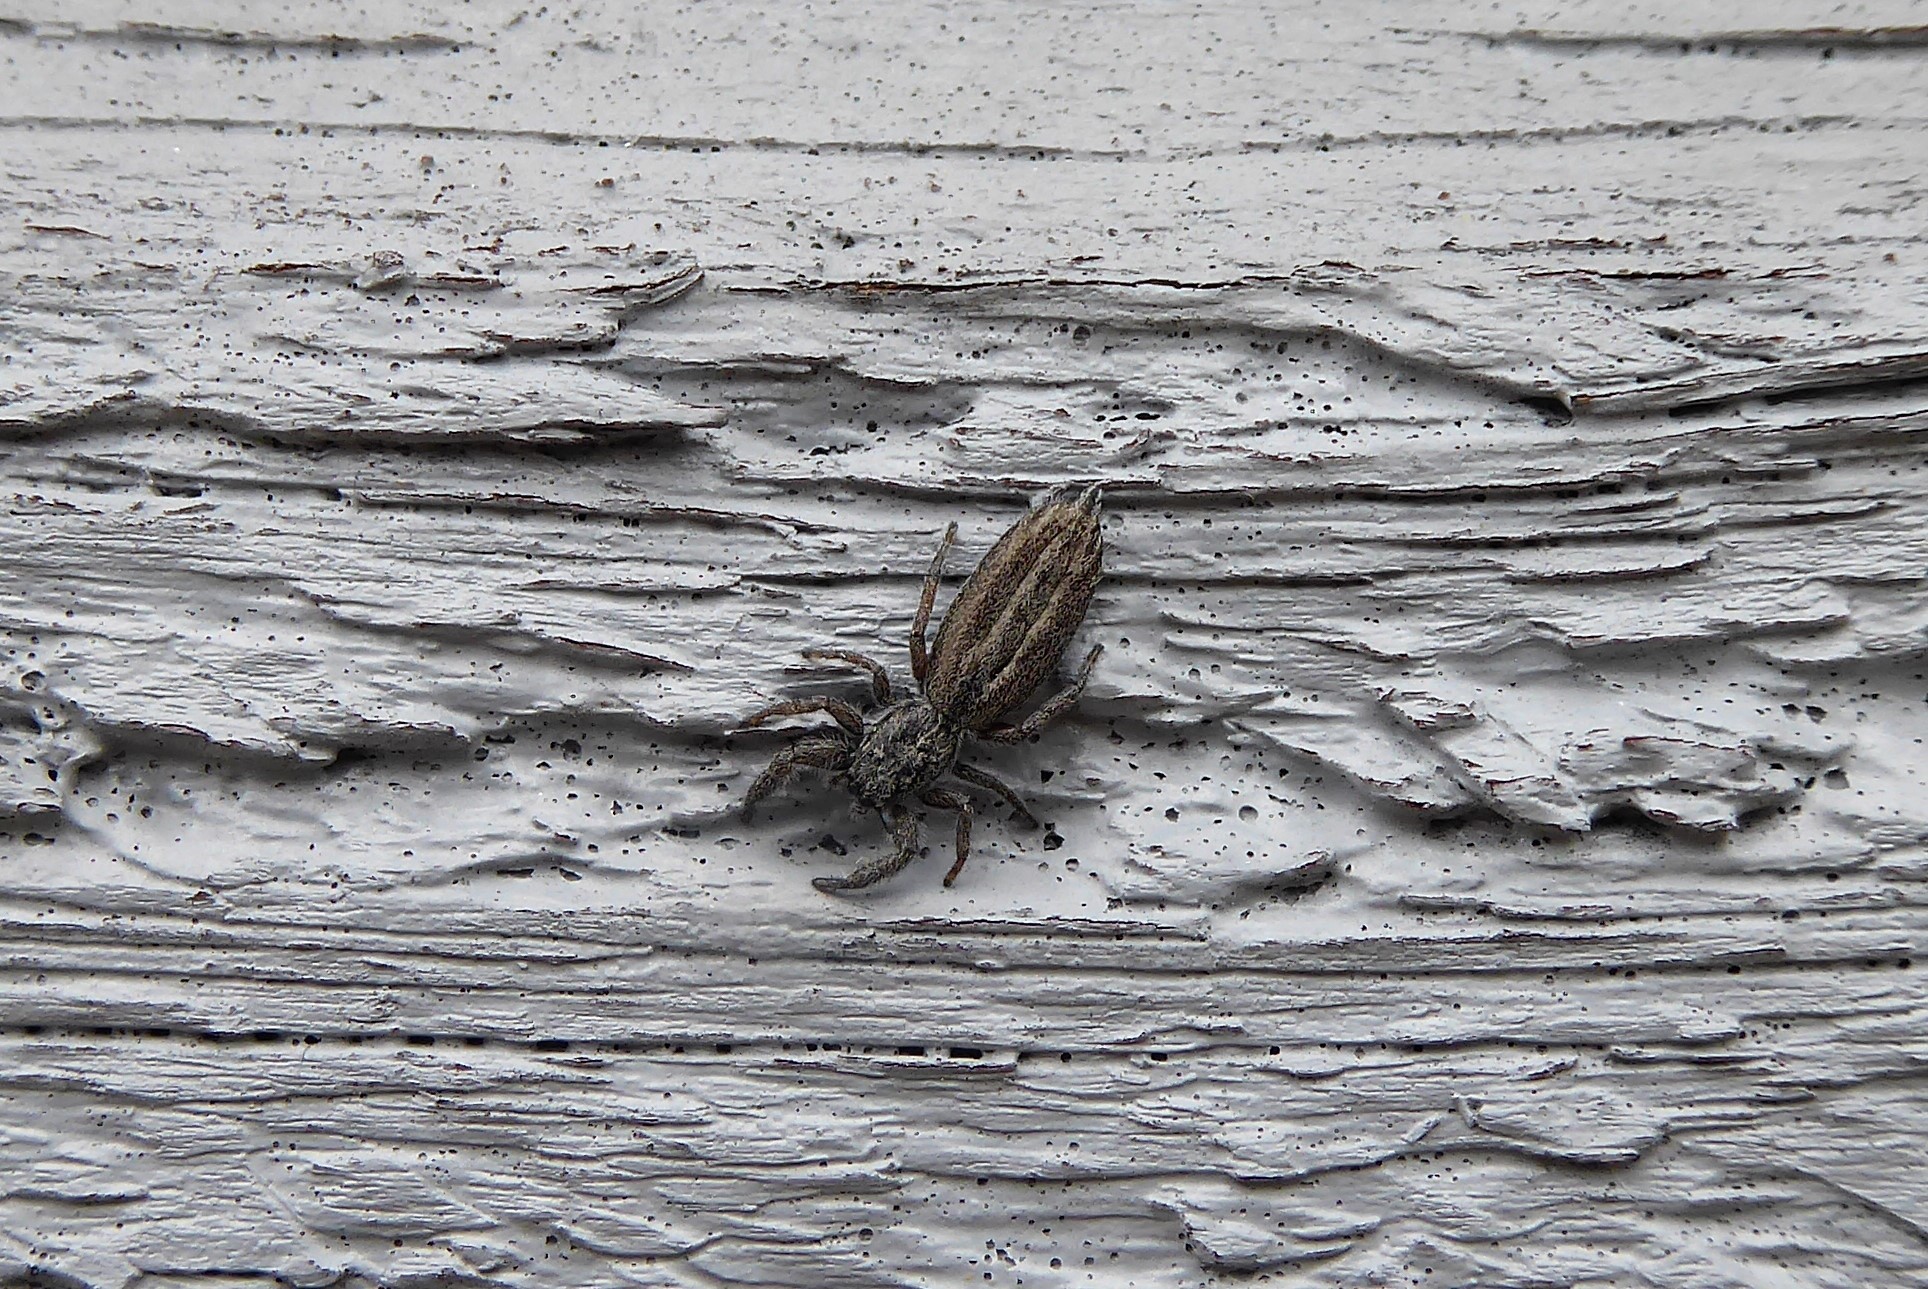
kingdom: Animalia
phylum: Arthropoda
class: Arachnida
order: Araneae
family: Salticidae
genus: Holoplatys
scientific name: Holoplatys apressus
